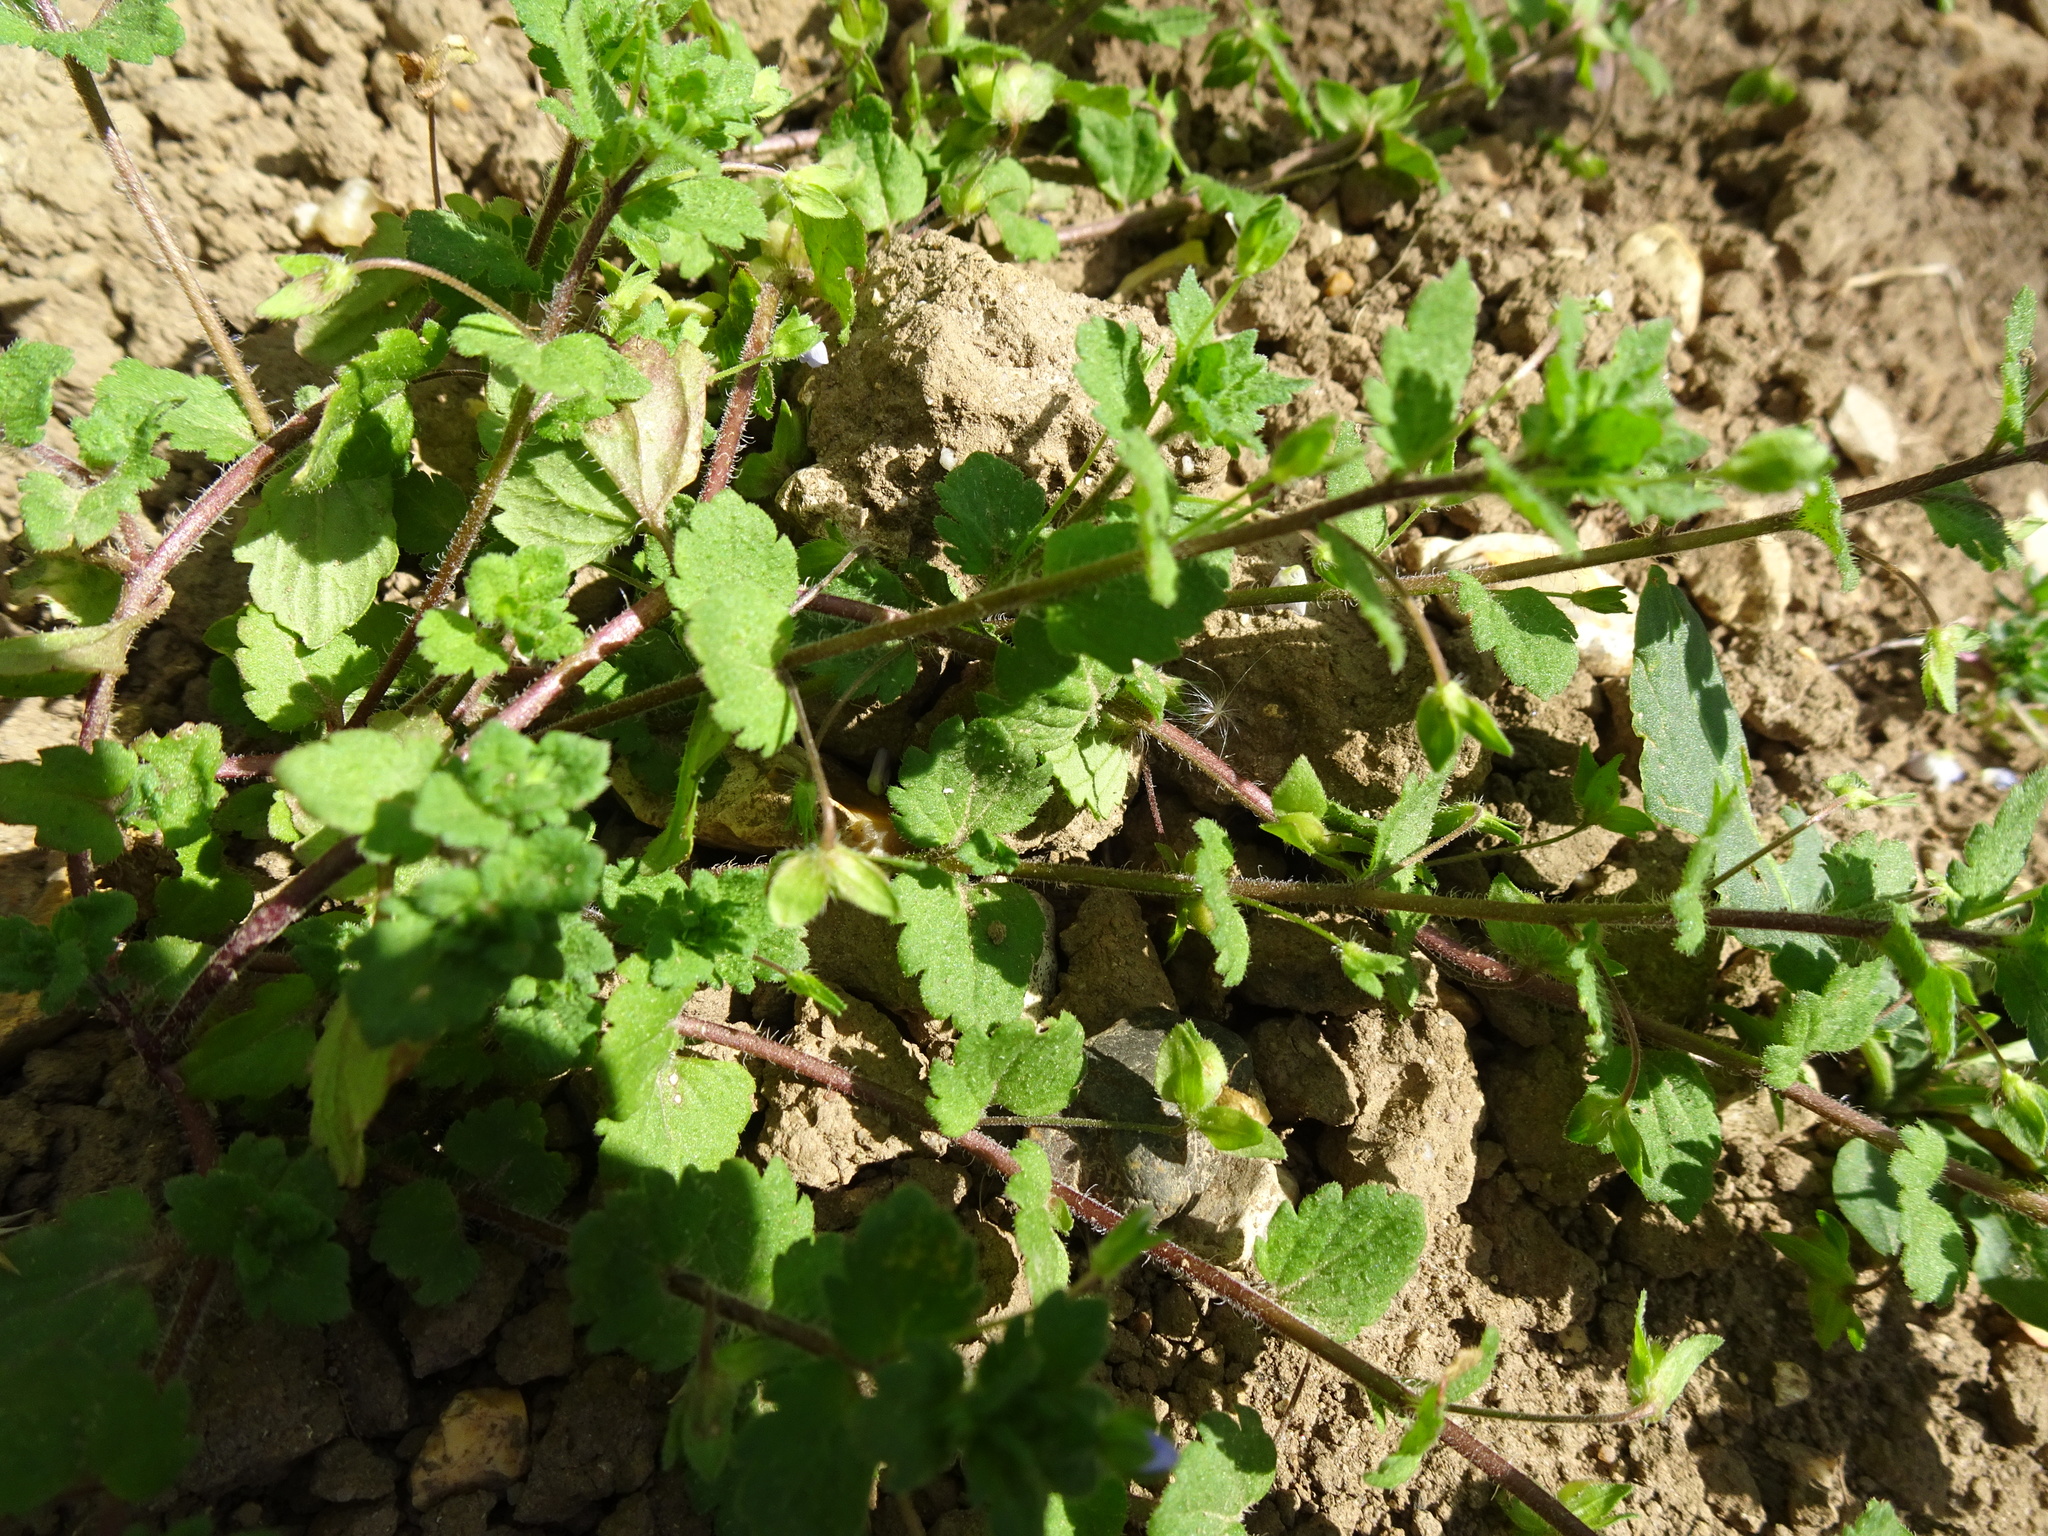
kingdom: Plantae
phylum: Tracheophyta
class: Magnoliopsida
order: Lamiales
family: Plantaginaceae
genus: Veronica
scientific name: Veronica persica
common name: Common field-speedwell
